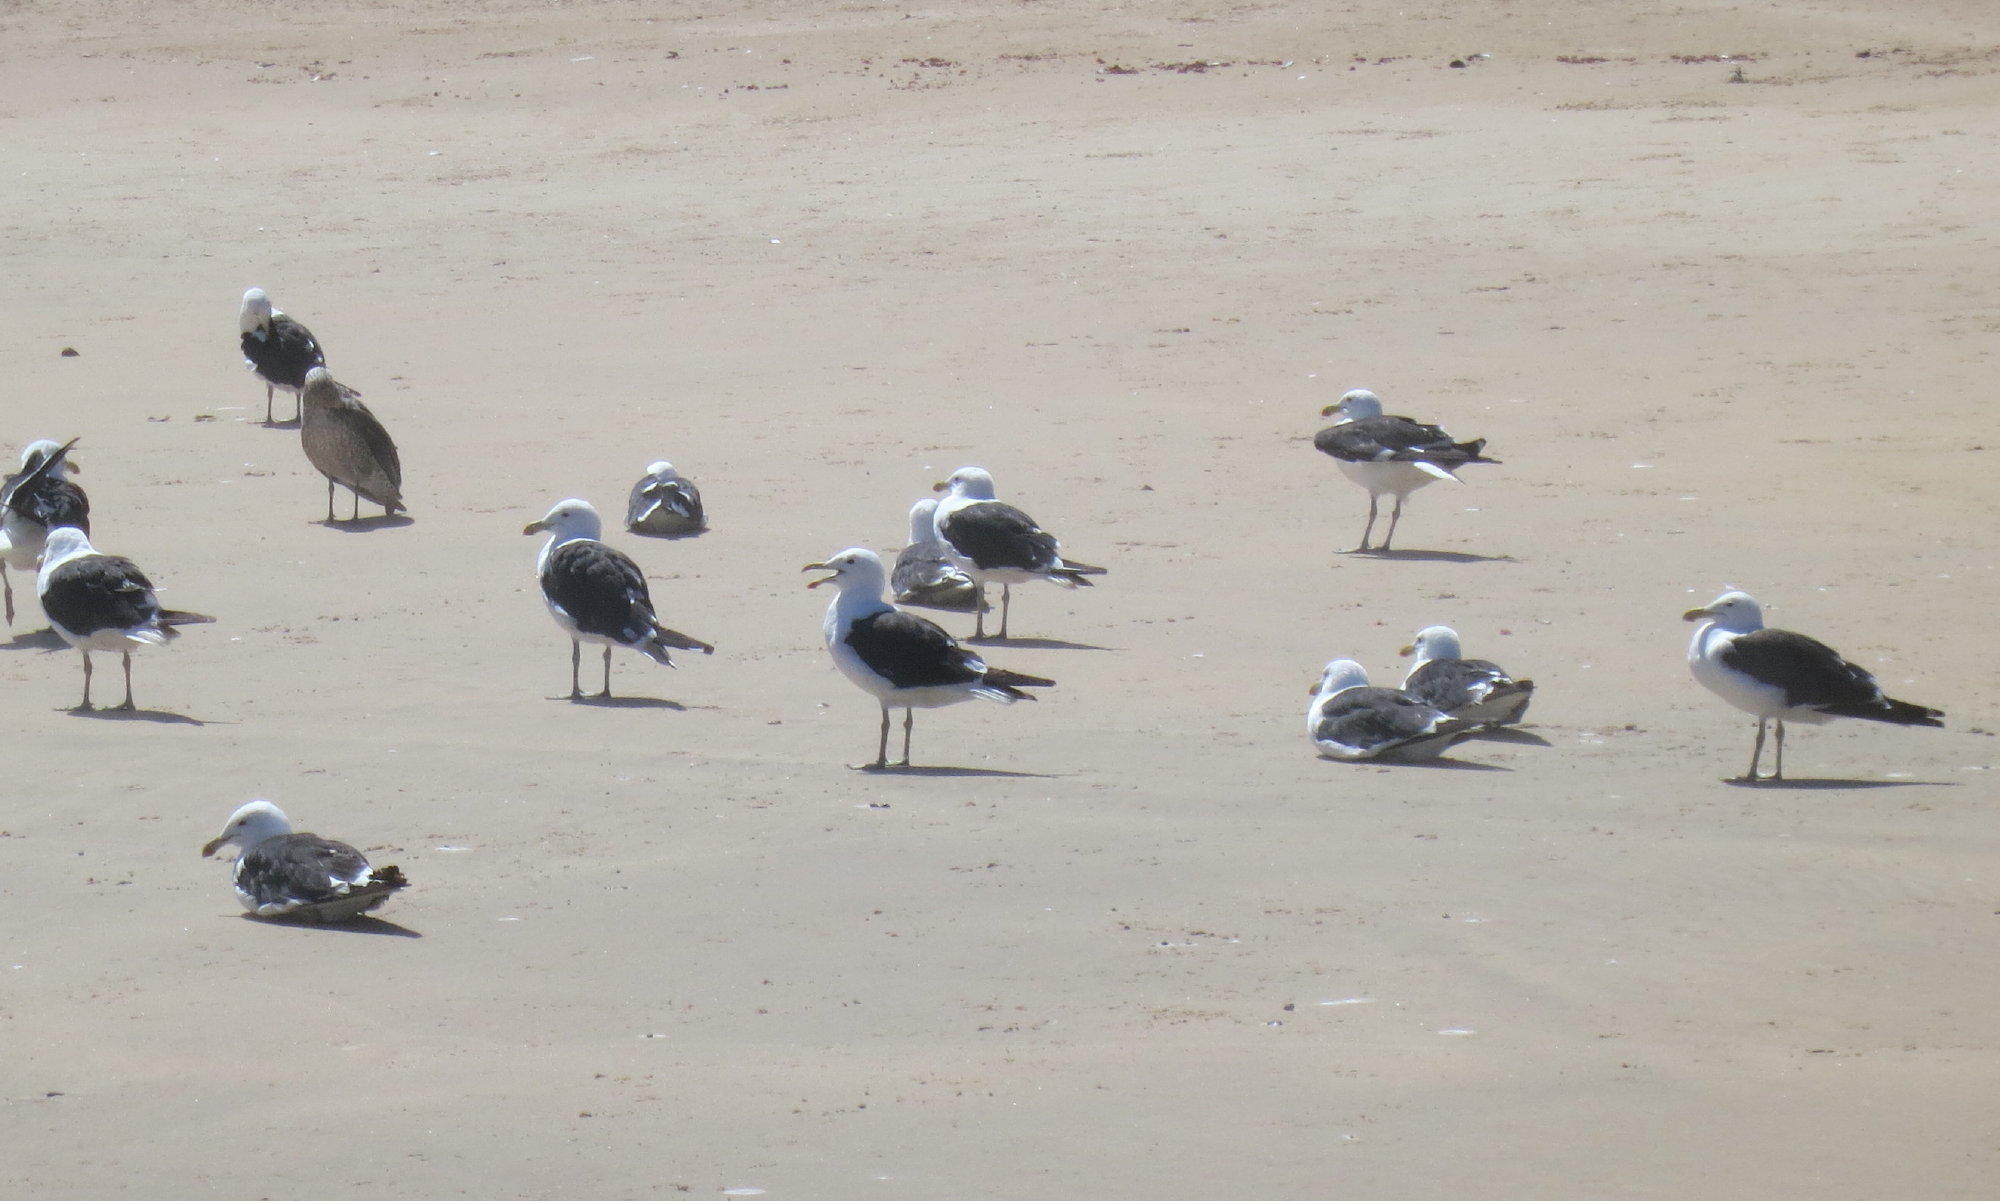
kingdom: Animalia
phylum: Chordata
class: Aves
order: Charadriiformes
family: Laridae
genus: Larus
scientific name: Larus dominicanus
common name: Kelp gull
